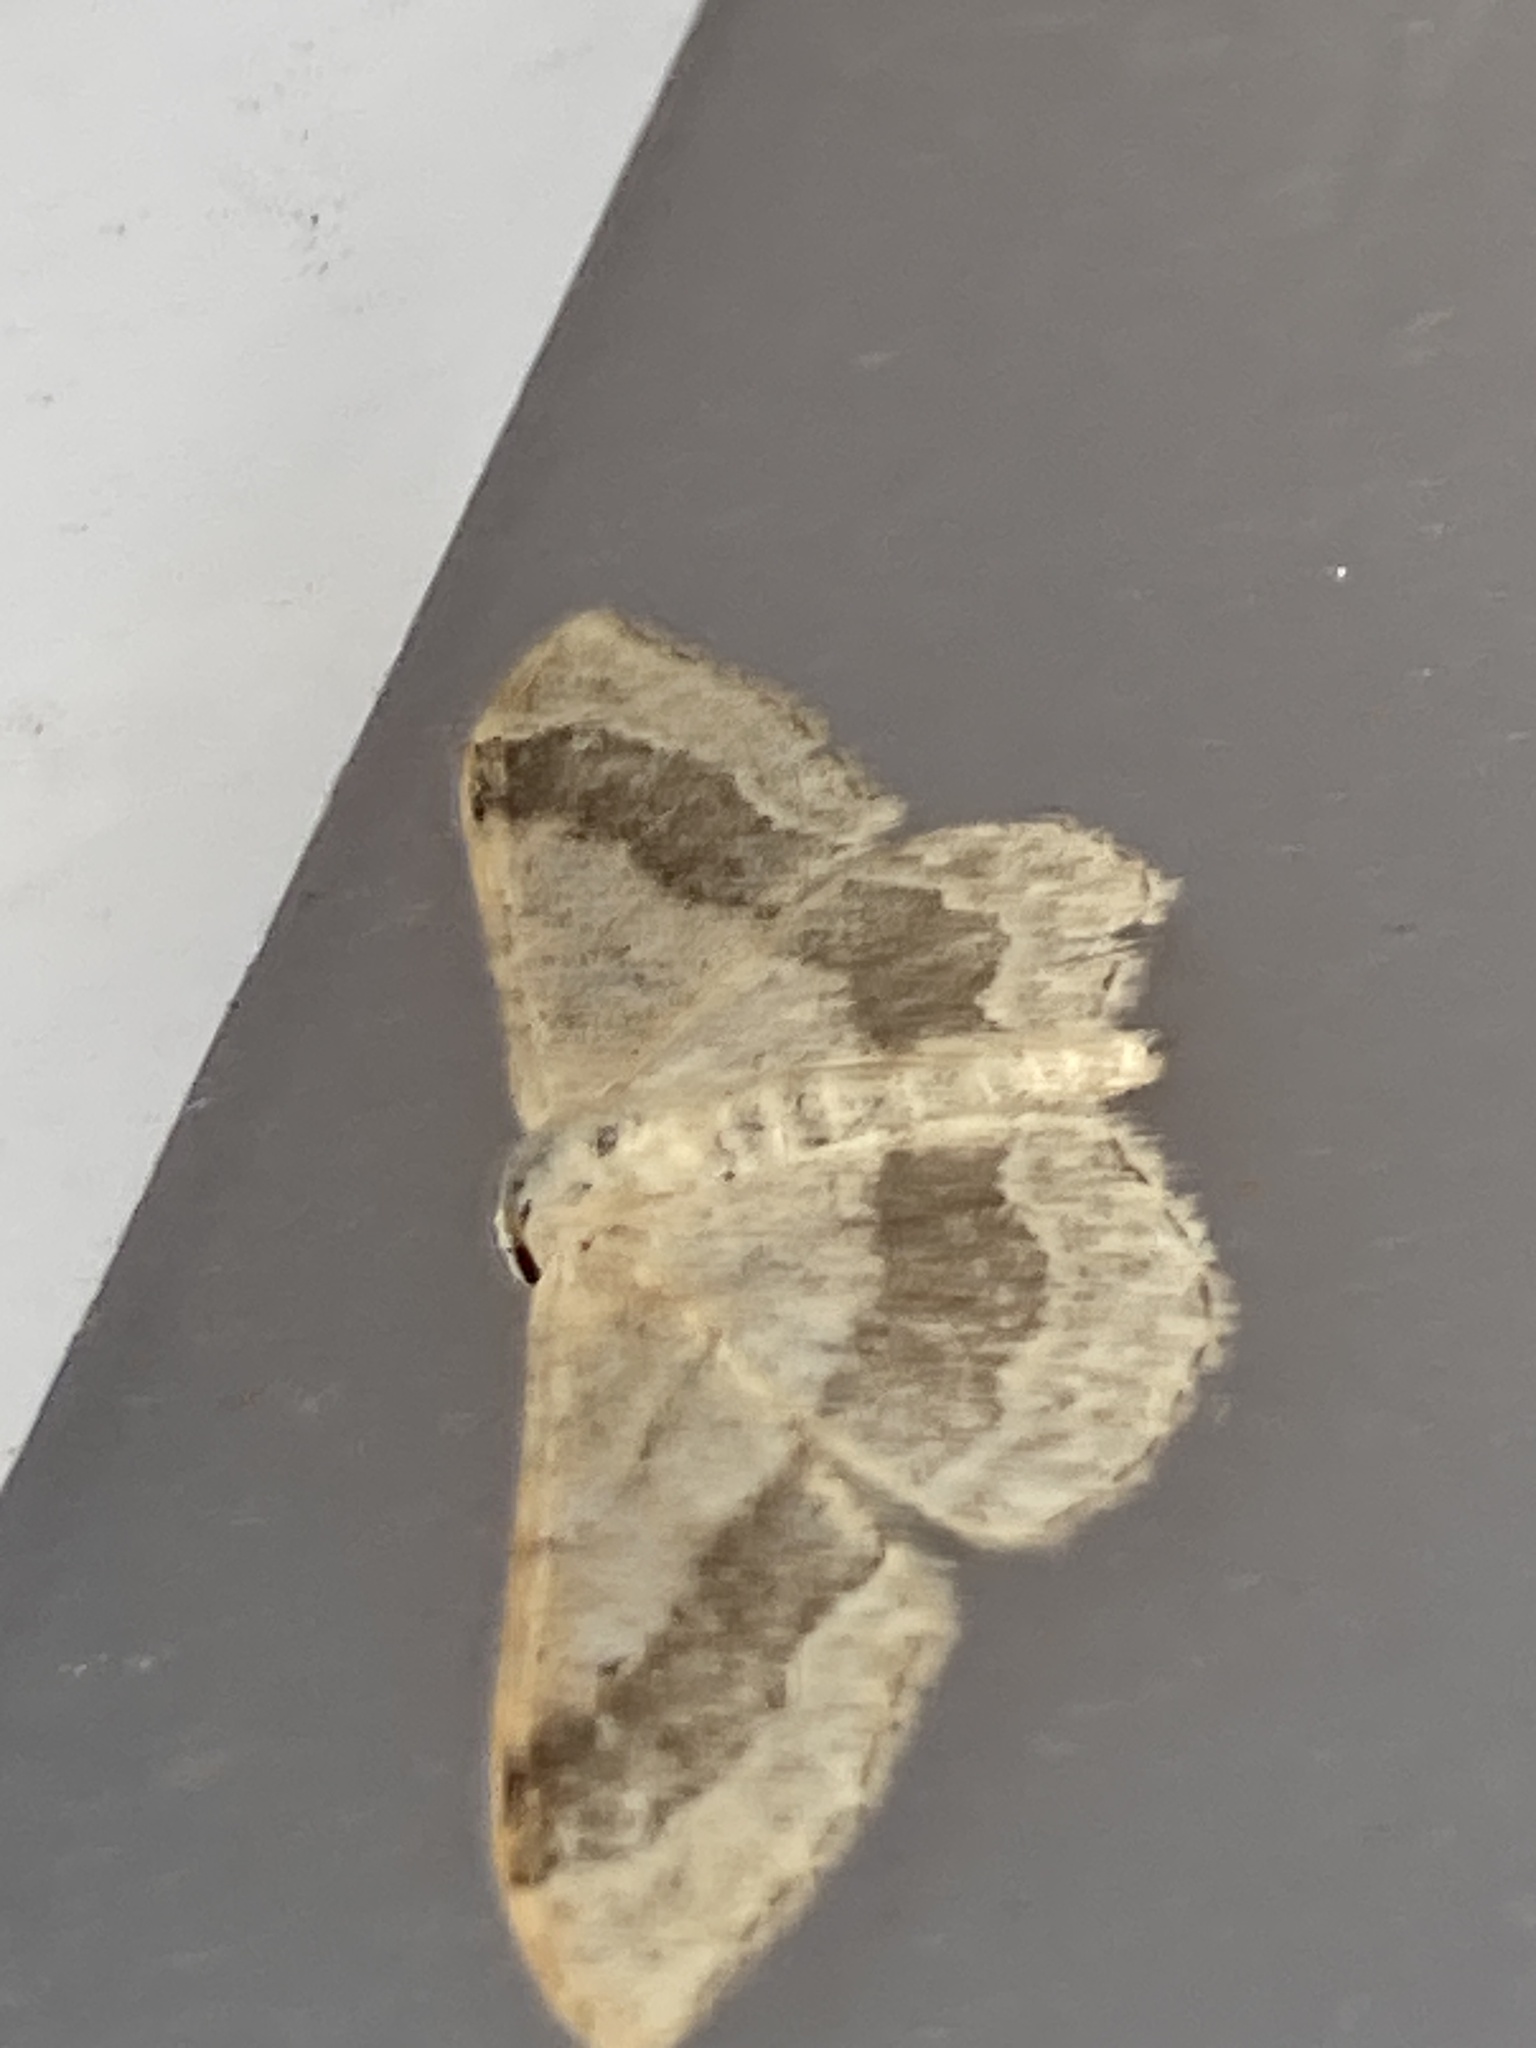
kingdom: Animalia
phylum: Arthropoda
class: Insecta
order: Lepidoptera
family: Geometridae
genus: Idaea
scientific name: Idaea aversata
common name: Riband wave
